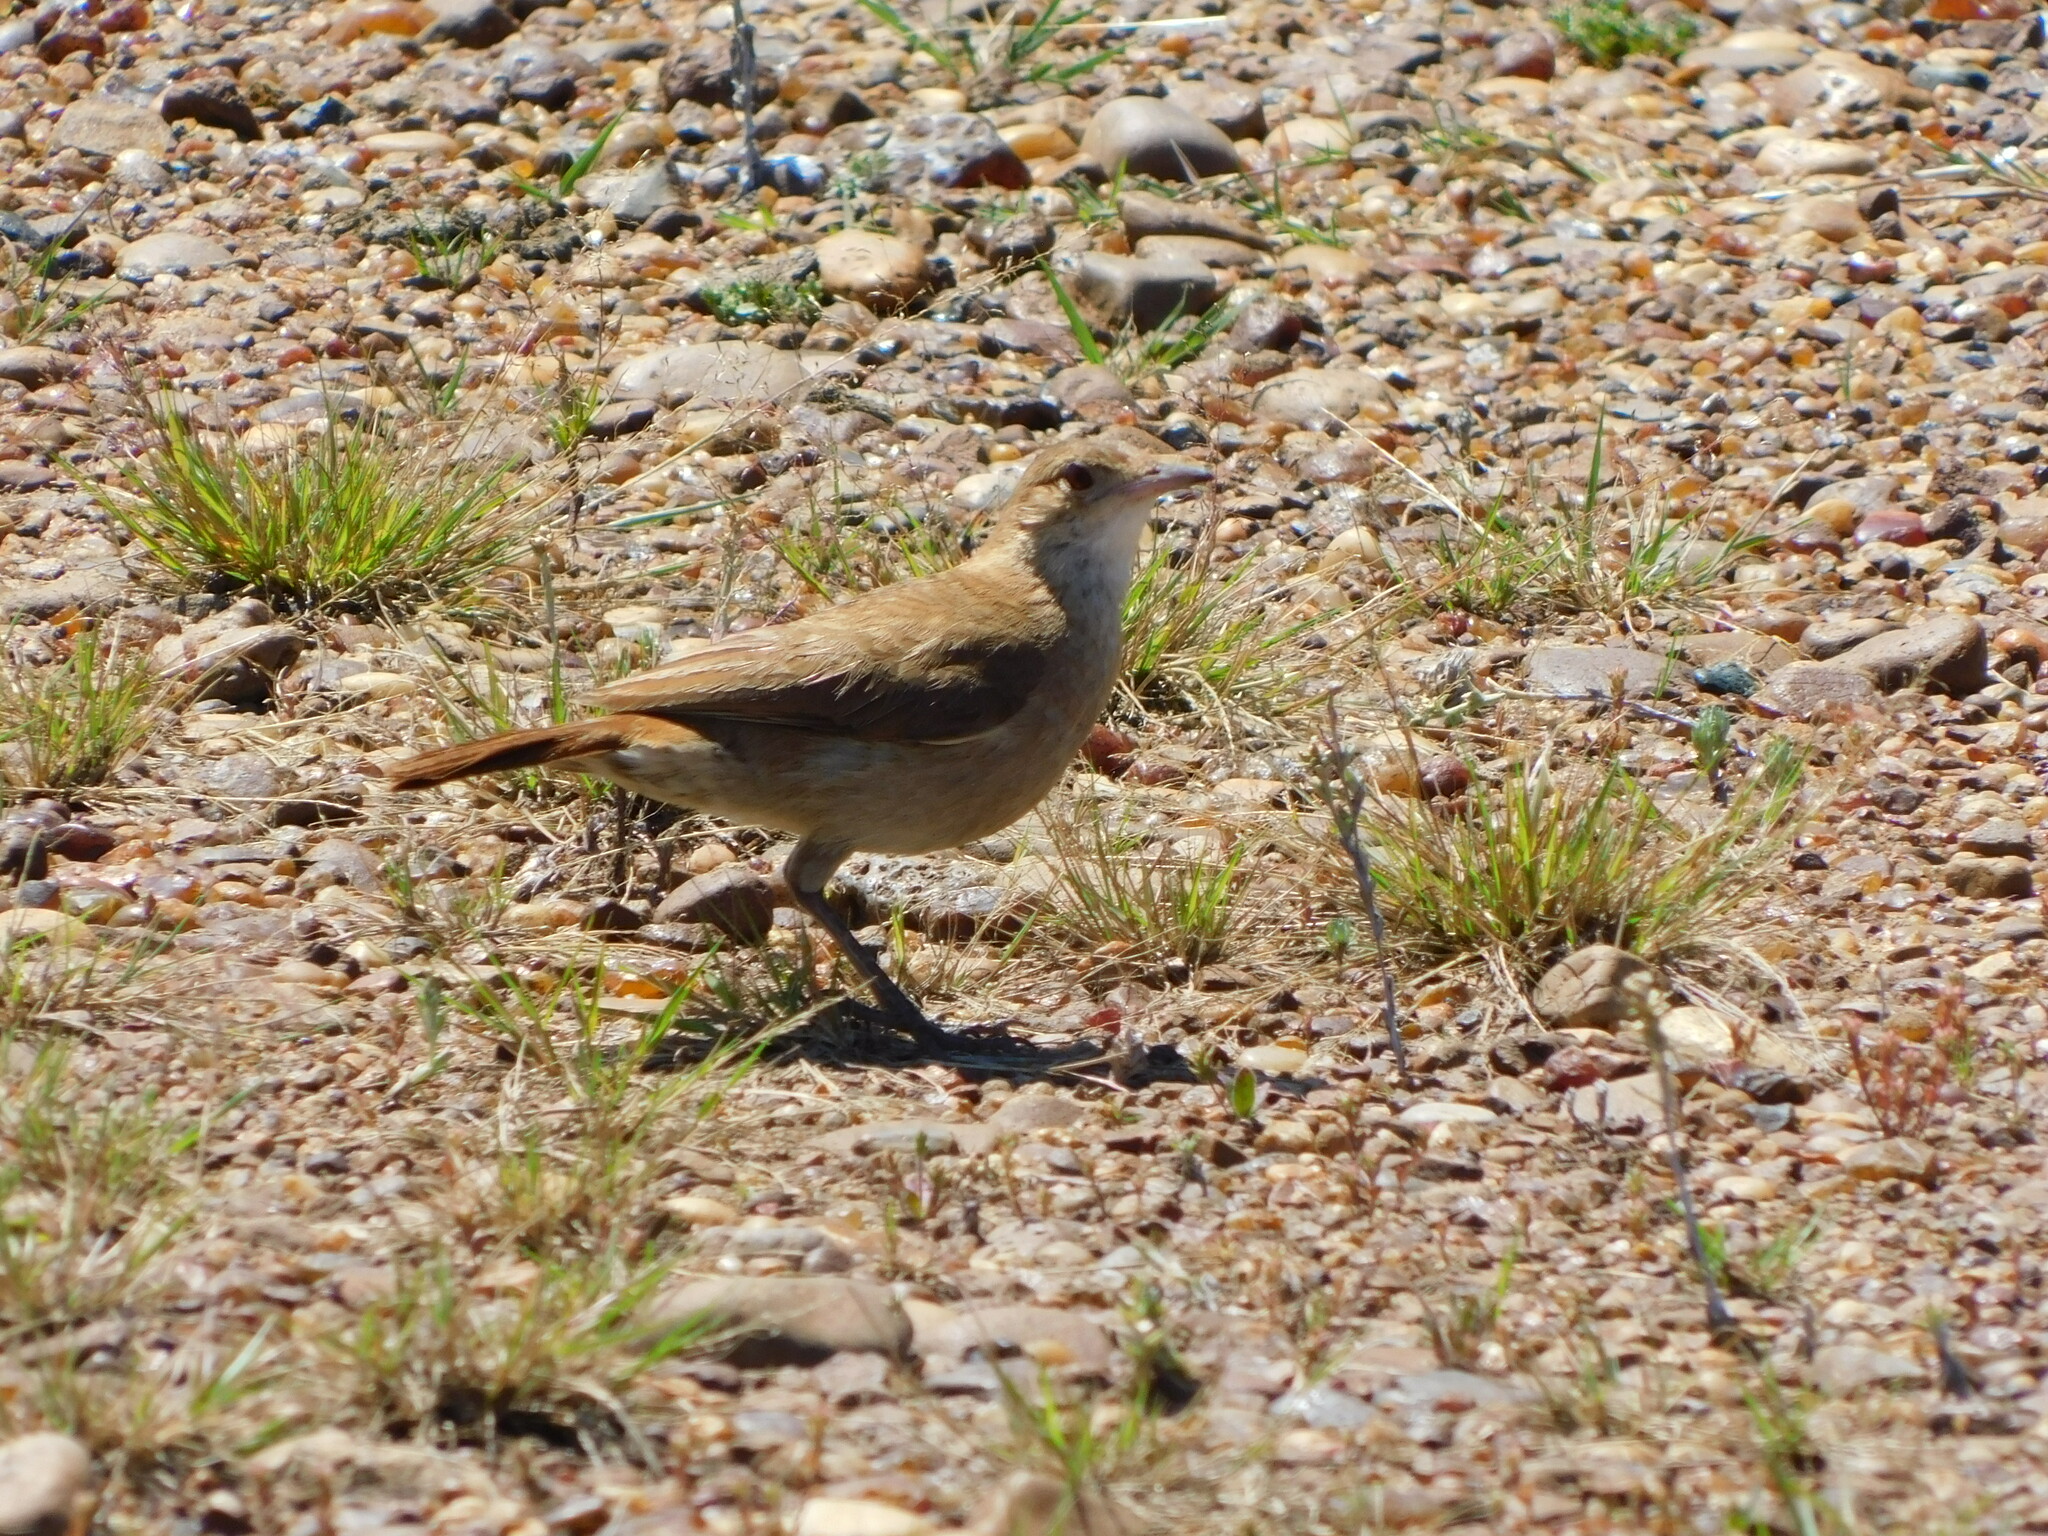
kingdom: Animalia
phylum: Chordata
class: Aves
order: Passeriformes
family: Furnariidae
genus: Furnarius
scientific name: Furnarius rufus
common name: Rufous hornero
